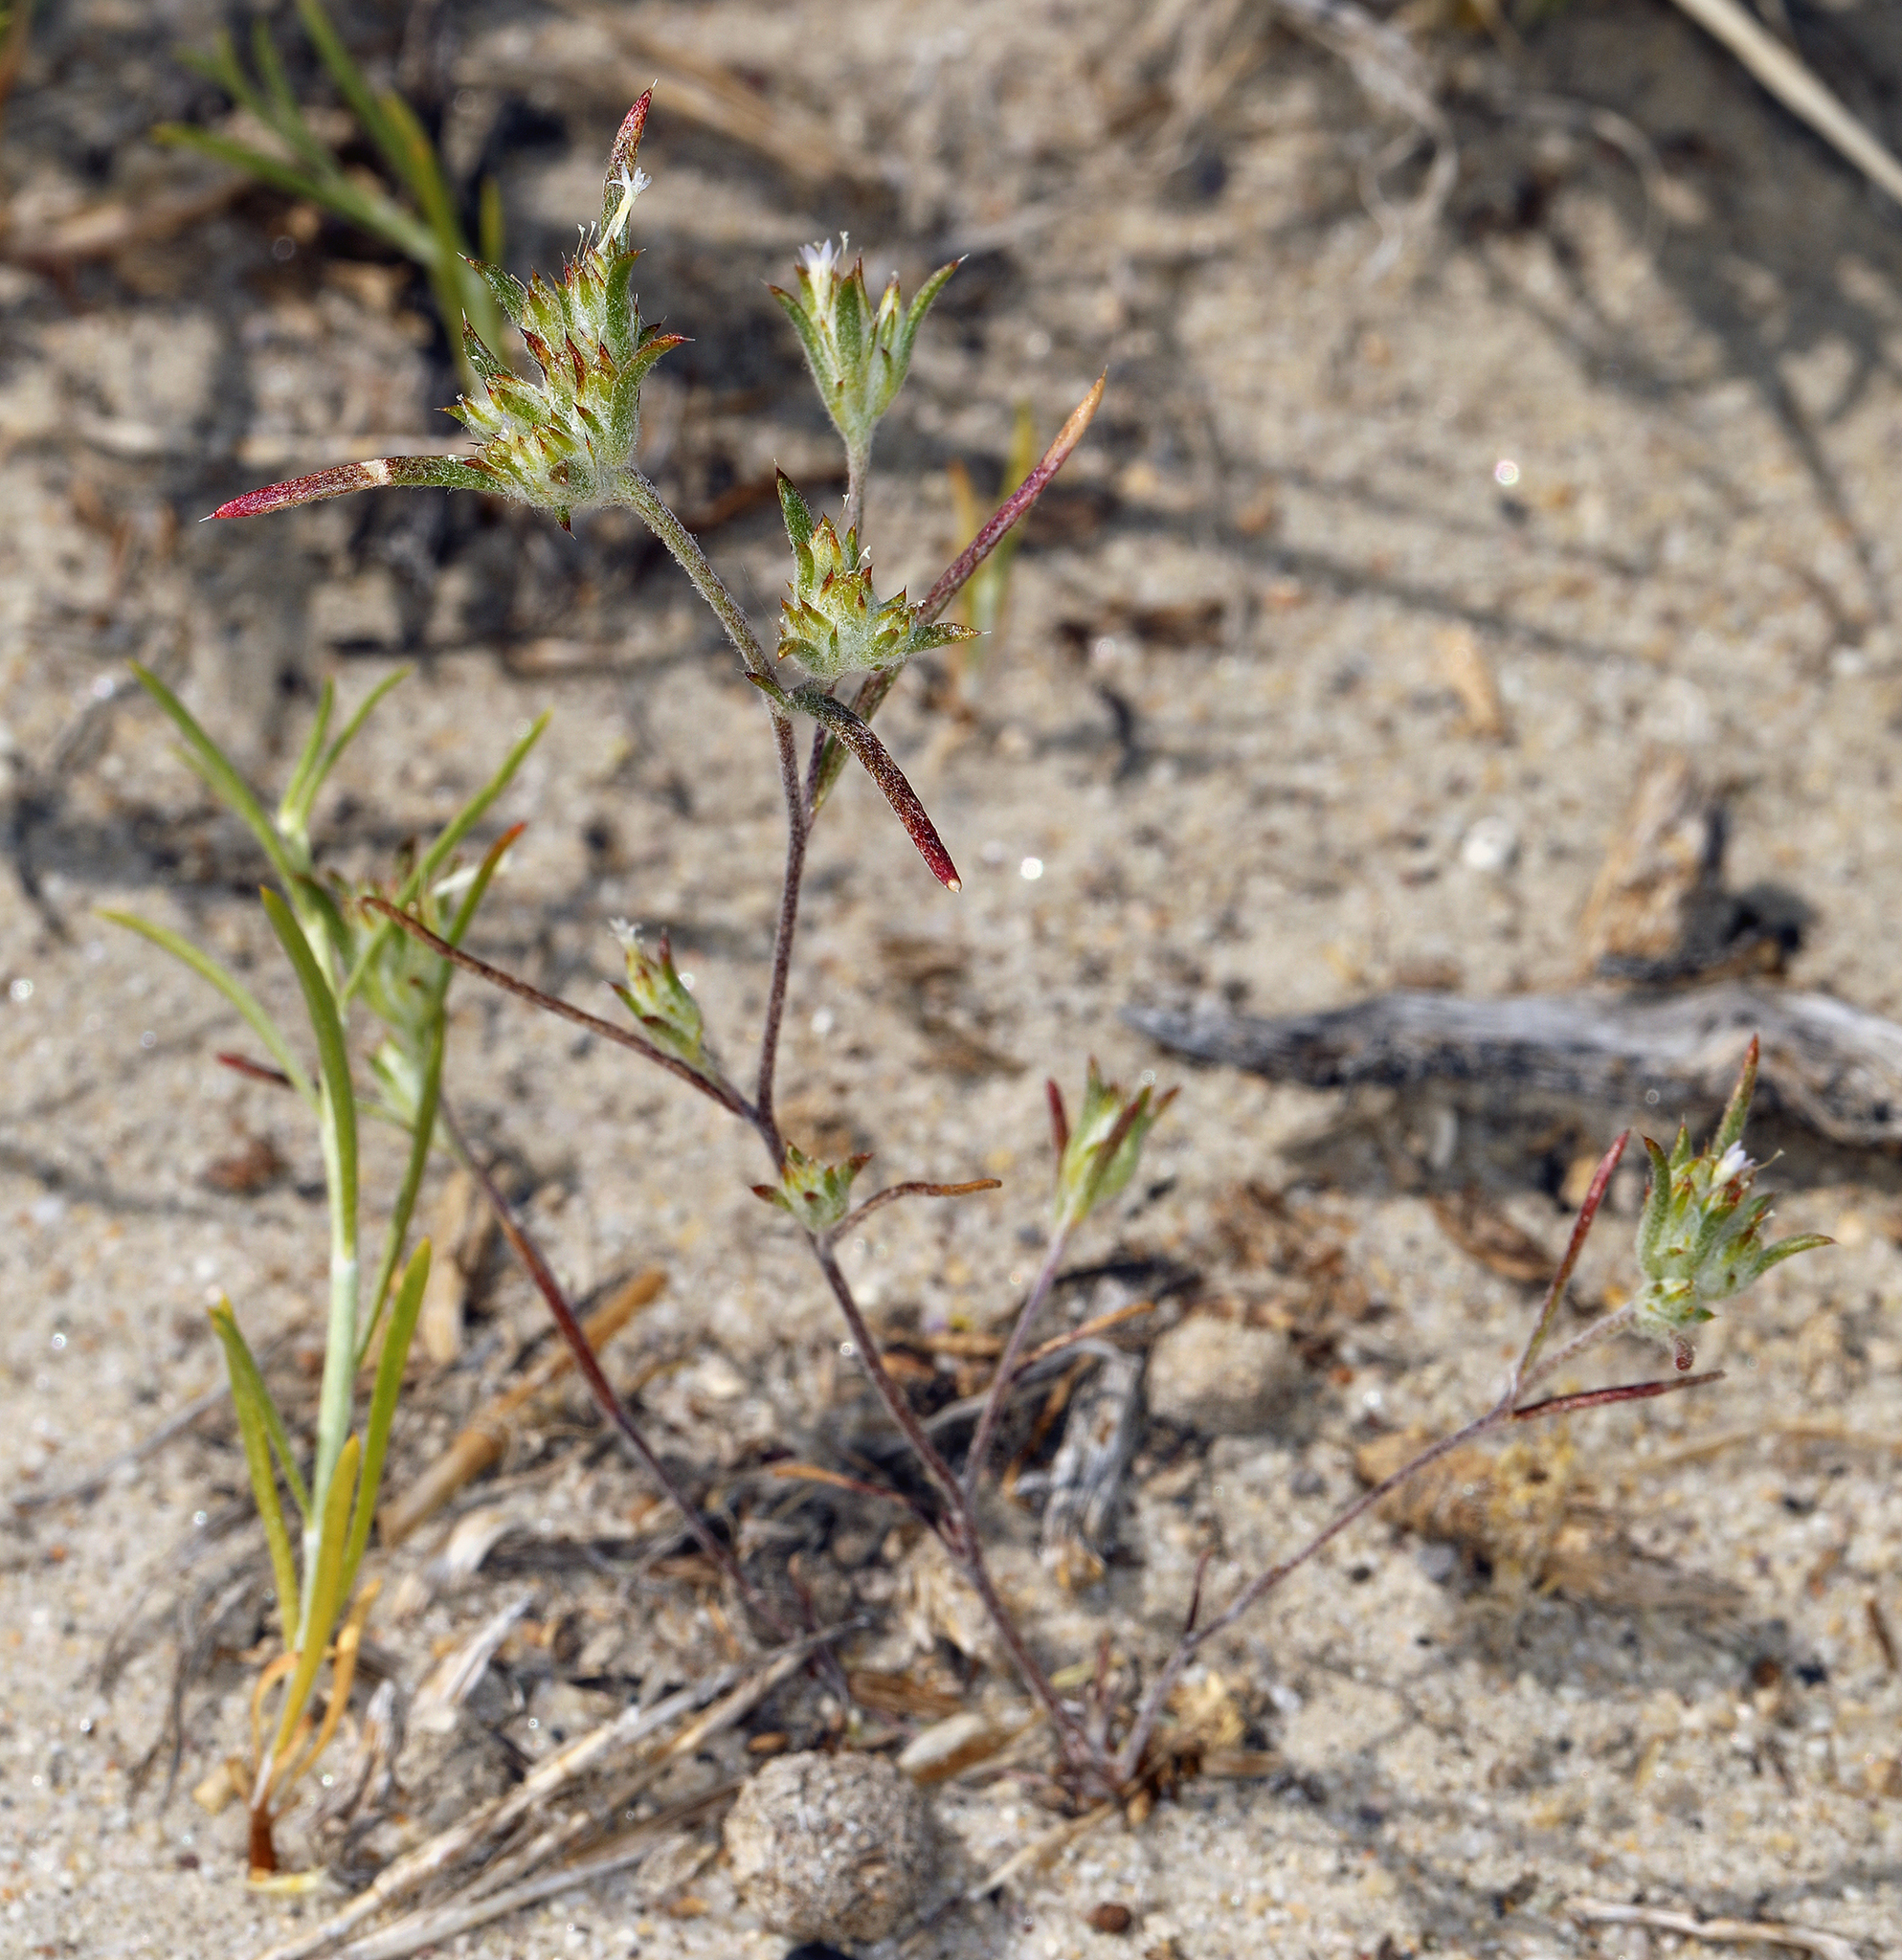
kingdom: Plantae
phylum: Tracheophyta
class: Magnoliopsida
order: Ericales
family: Polemoniaceae
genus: Eriastrum
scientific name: Eriastrum rosamondense
